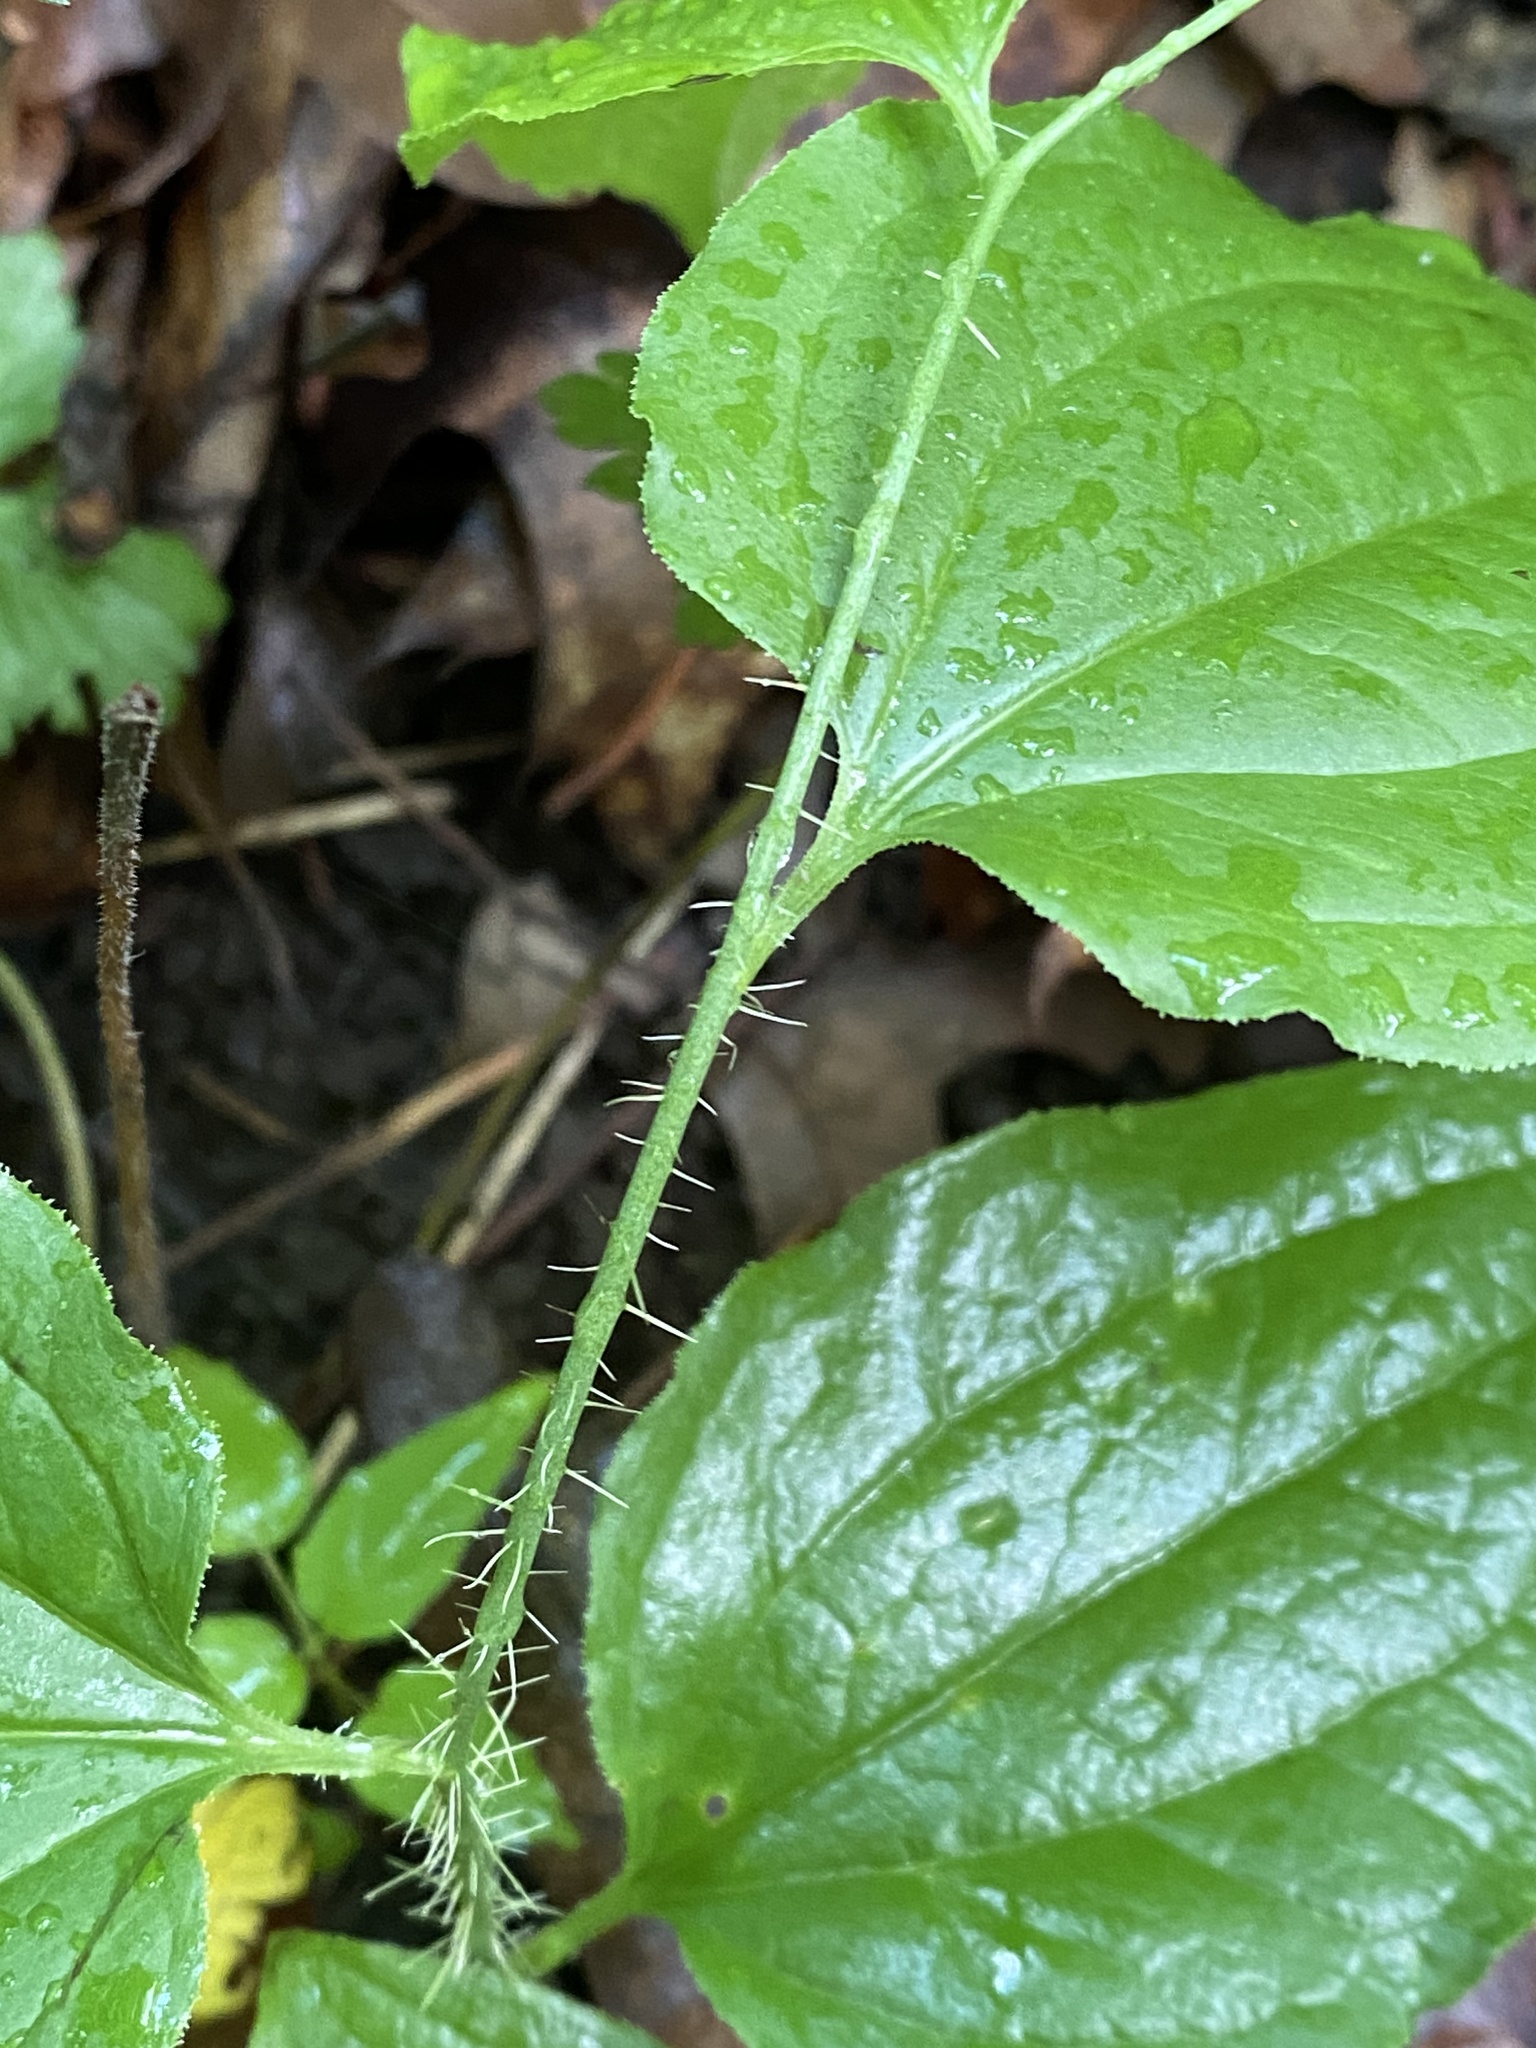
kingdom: Plantae
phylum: Tracheophyta
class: Liliopsida
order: Liliales
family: Smilacaceae
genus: Smilax
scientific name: Smilax tamnoides
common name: Hellfetter
